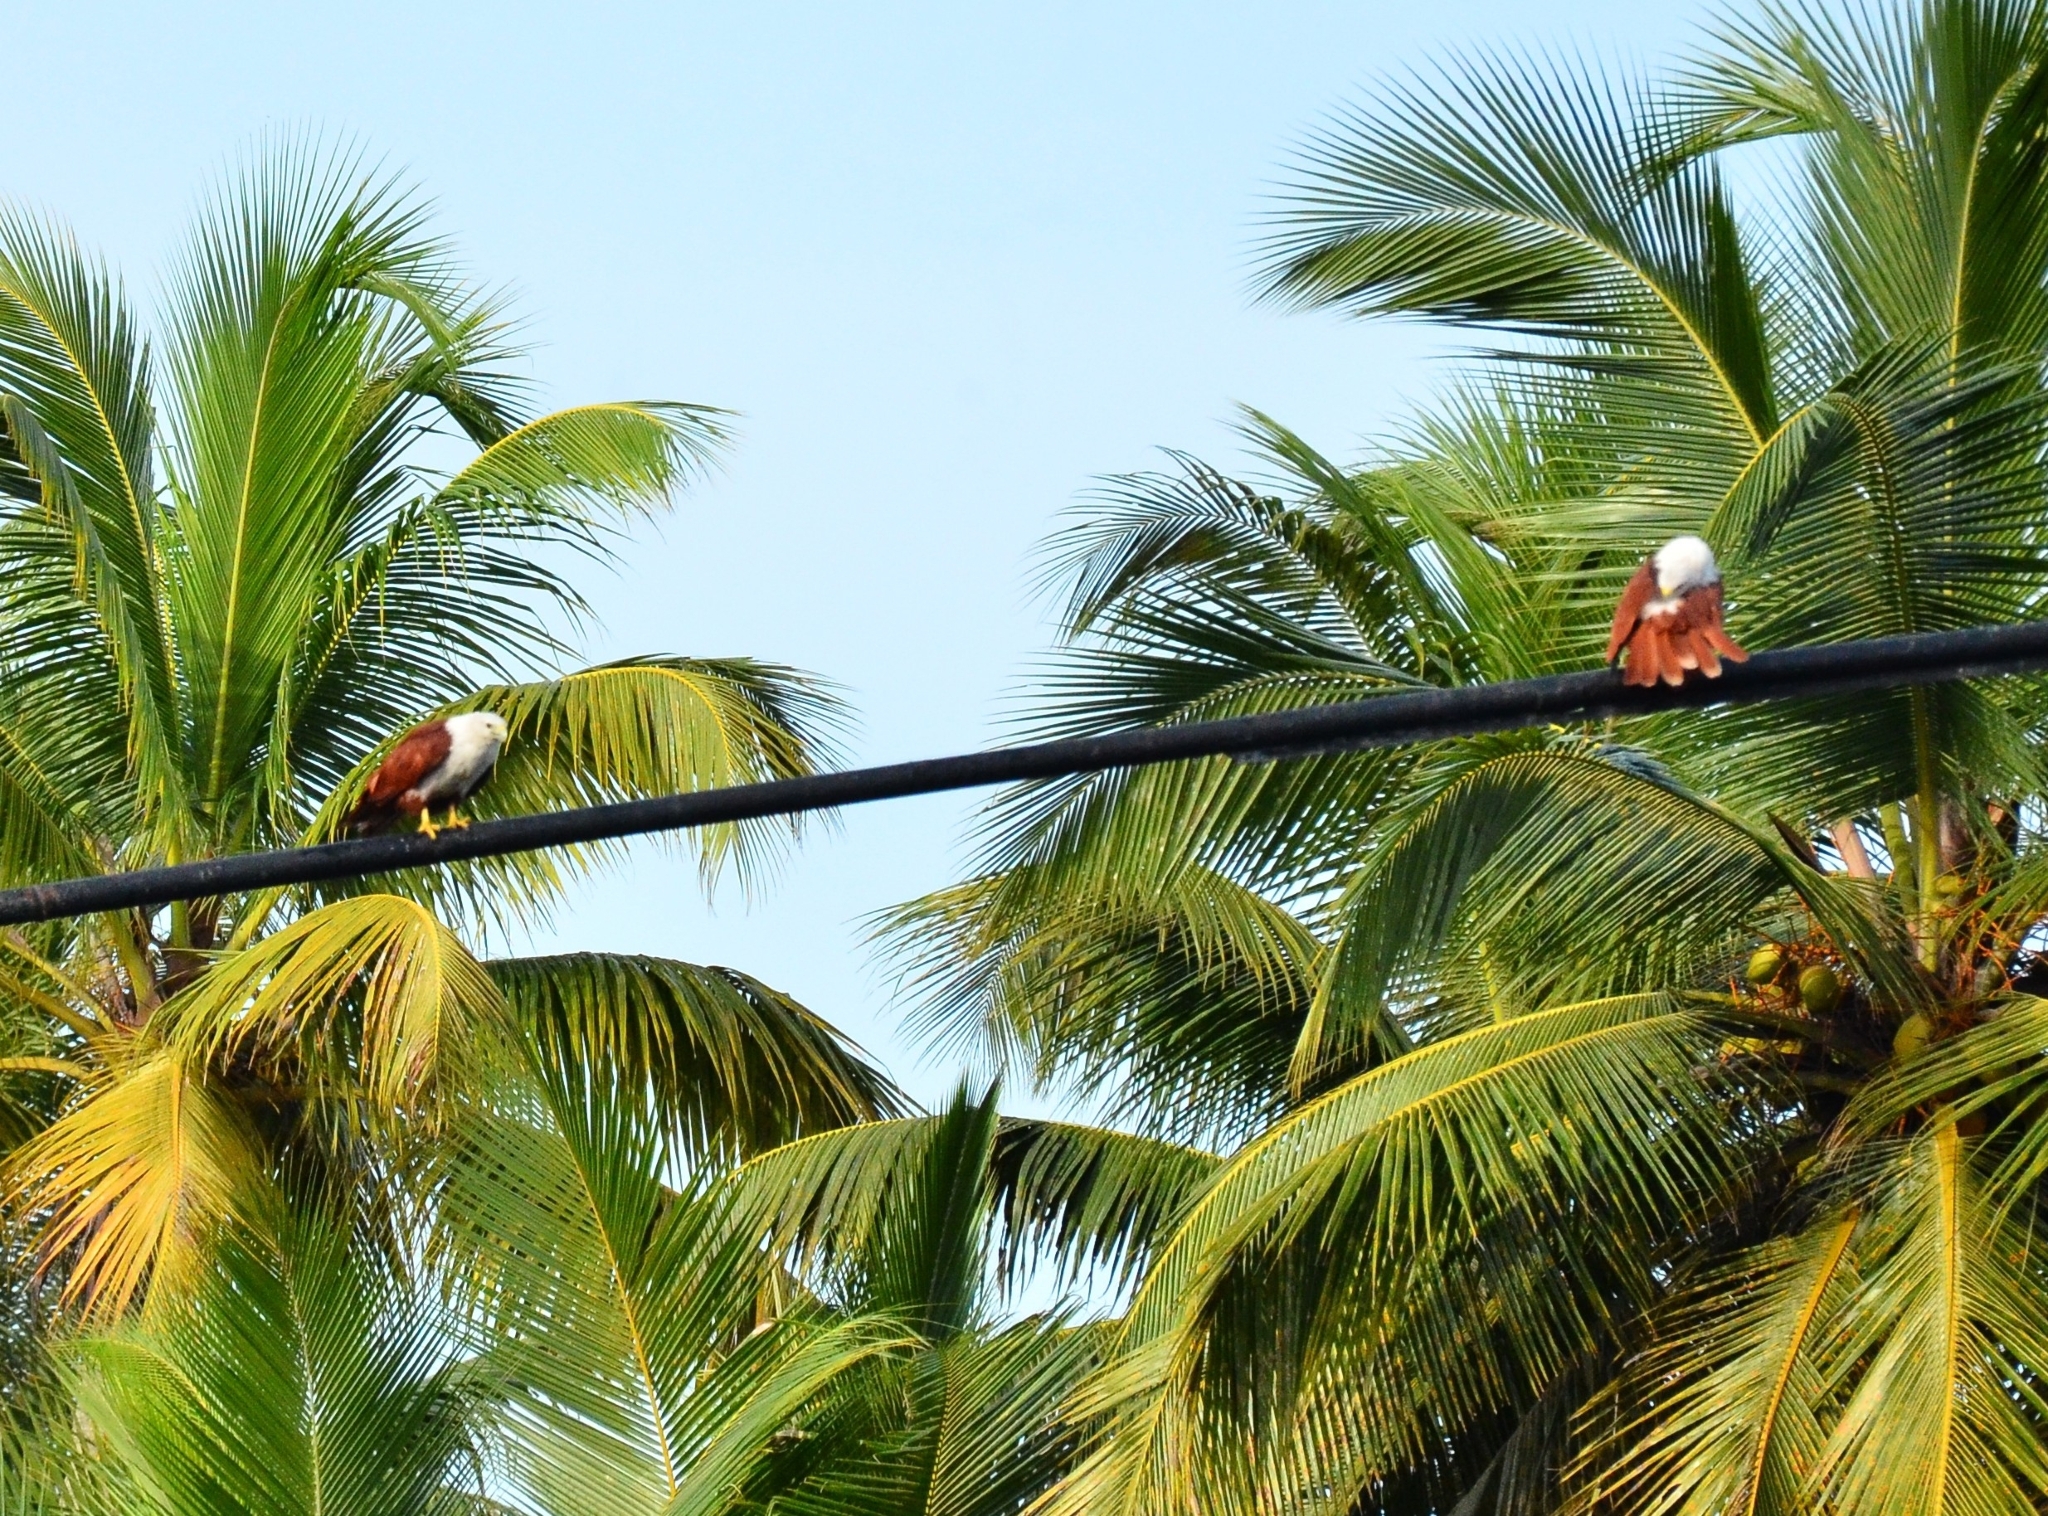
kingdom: Animalia
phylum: Chordata
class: Aves
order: Accipitriformes
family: Accipitridae
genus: Haliastur
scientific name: Haliastur indus
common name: Brahminy kite
